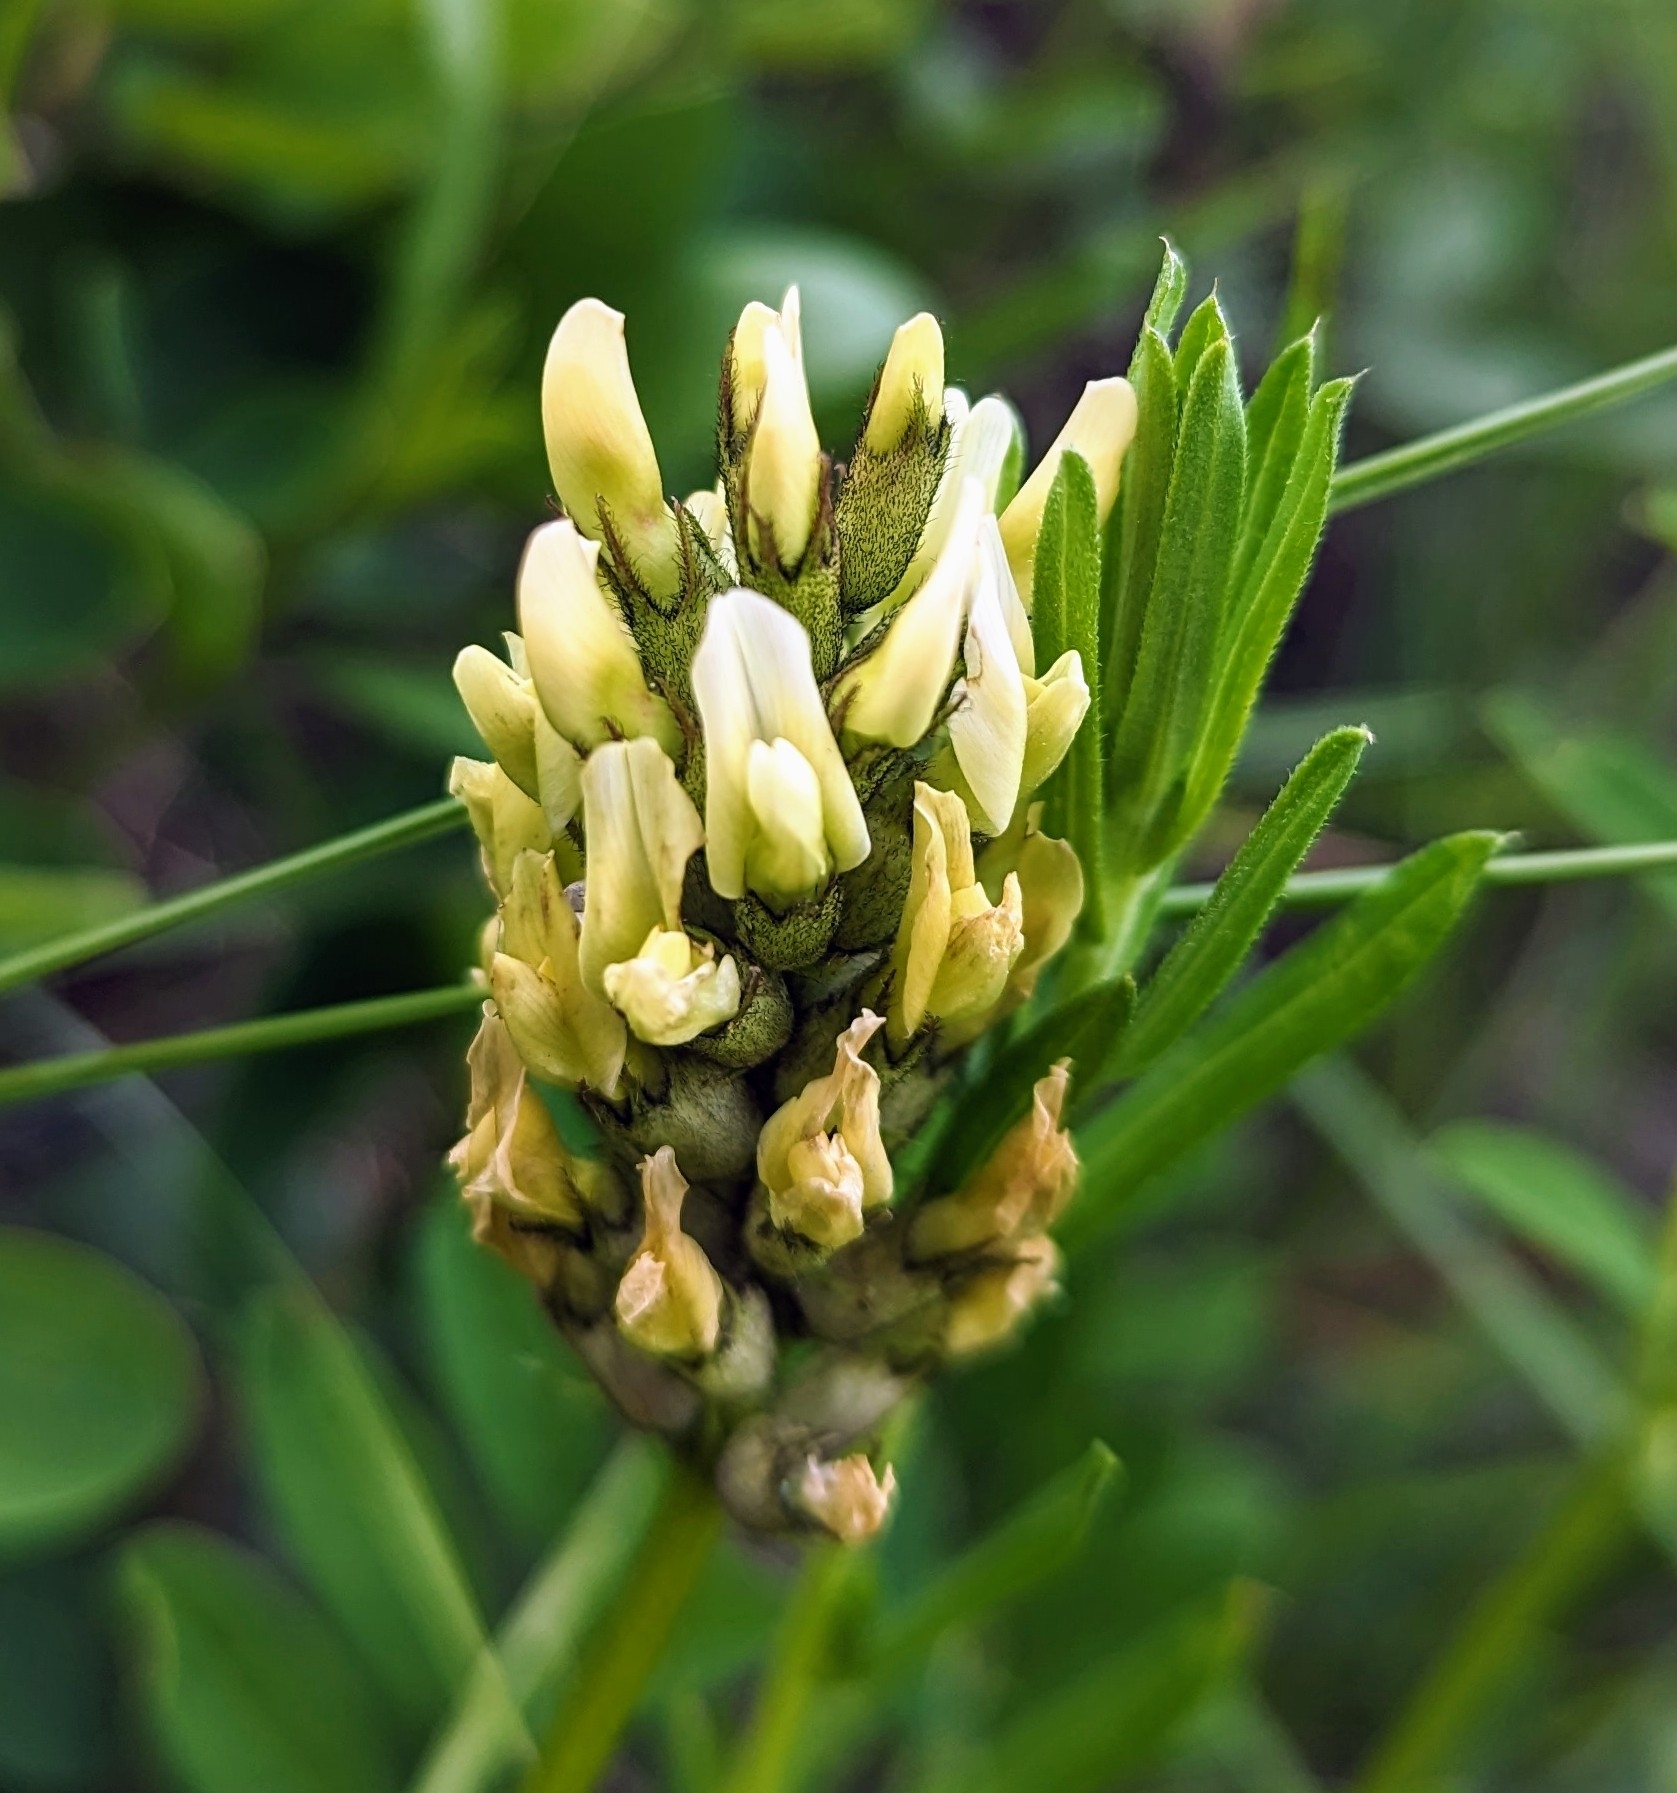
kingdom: Plantae
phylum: Tracheophyta
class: Magnoliopsida
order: Fabales
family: Fabaceae
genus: Astragalus
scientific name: Astragalus cicer
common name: Chick-pea milk-vetch
